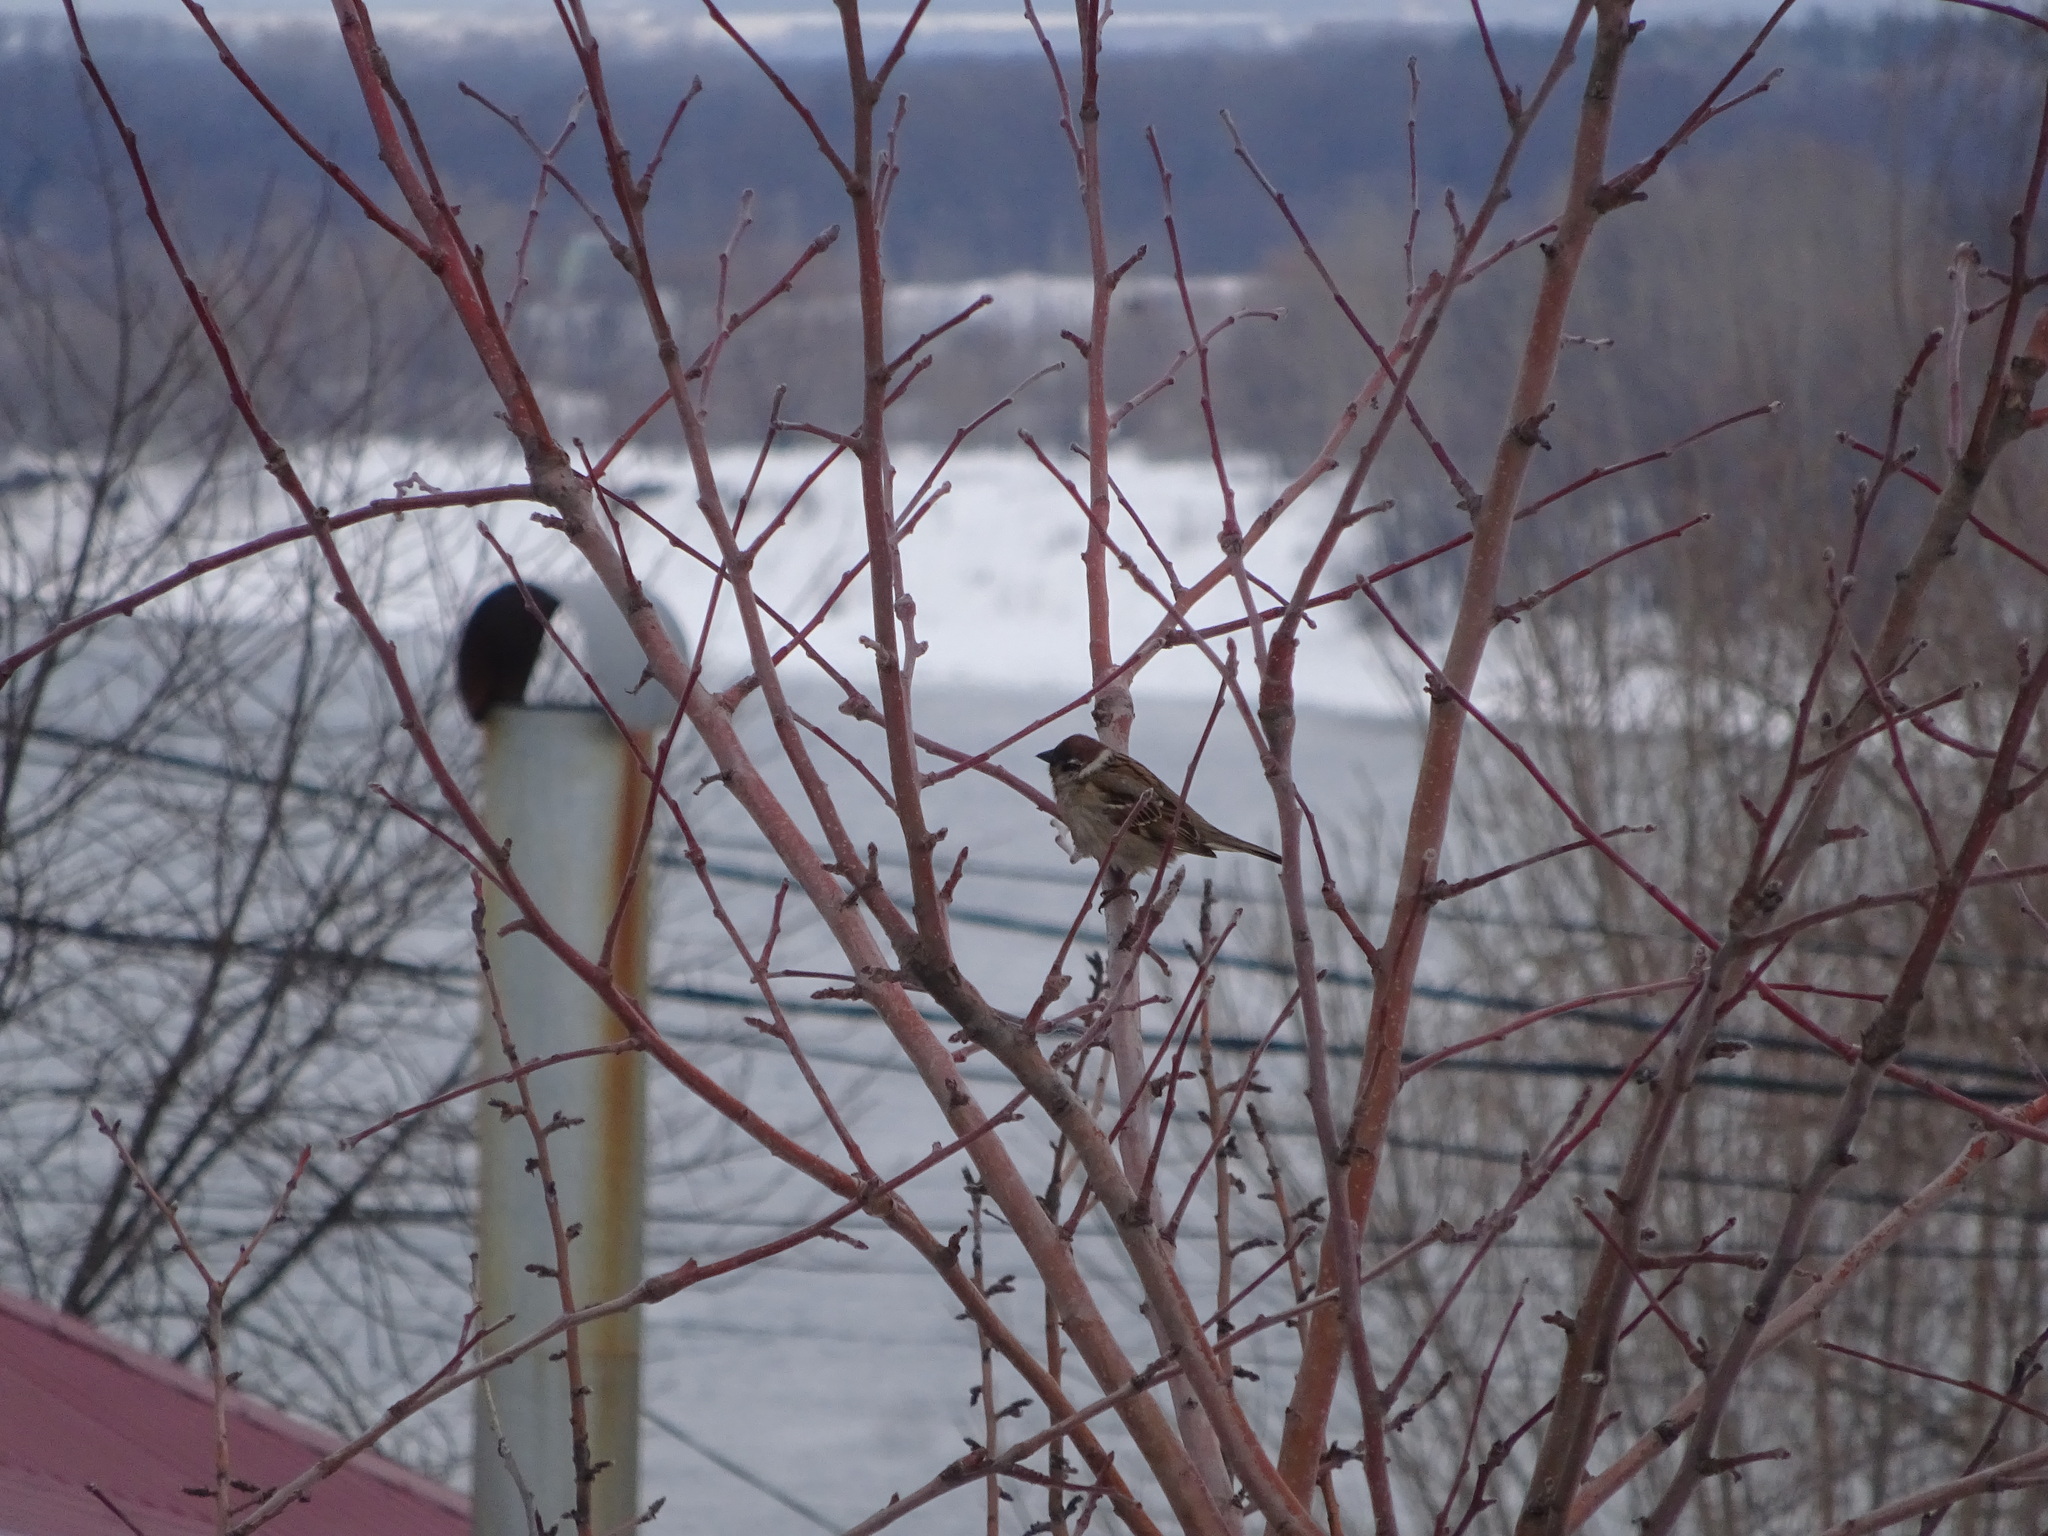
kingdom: Animalia
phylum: Chordata
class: Aves
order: Passeriformes
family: Passeridae
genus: Passer
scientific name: Passer montanus
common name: Eurasian tree sparrow
